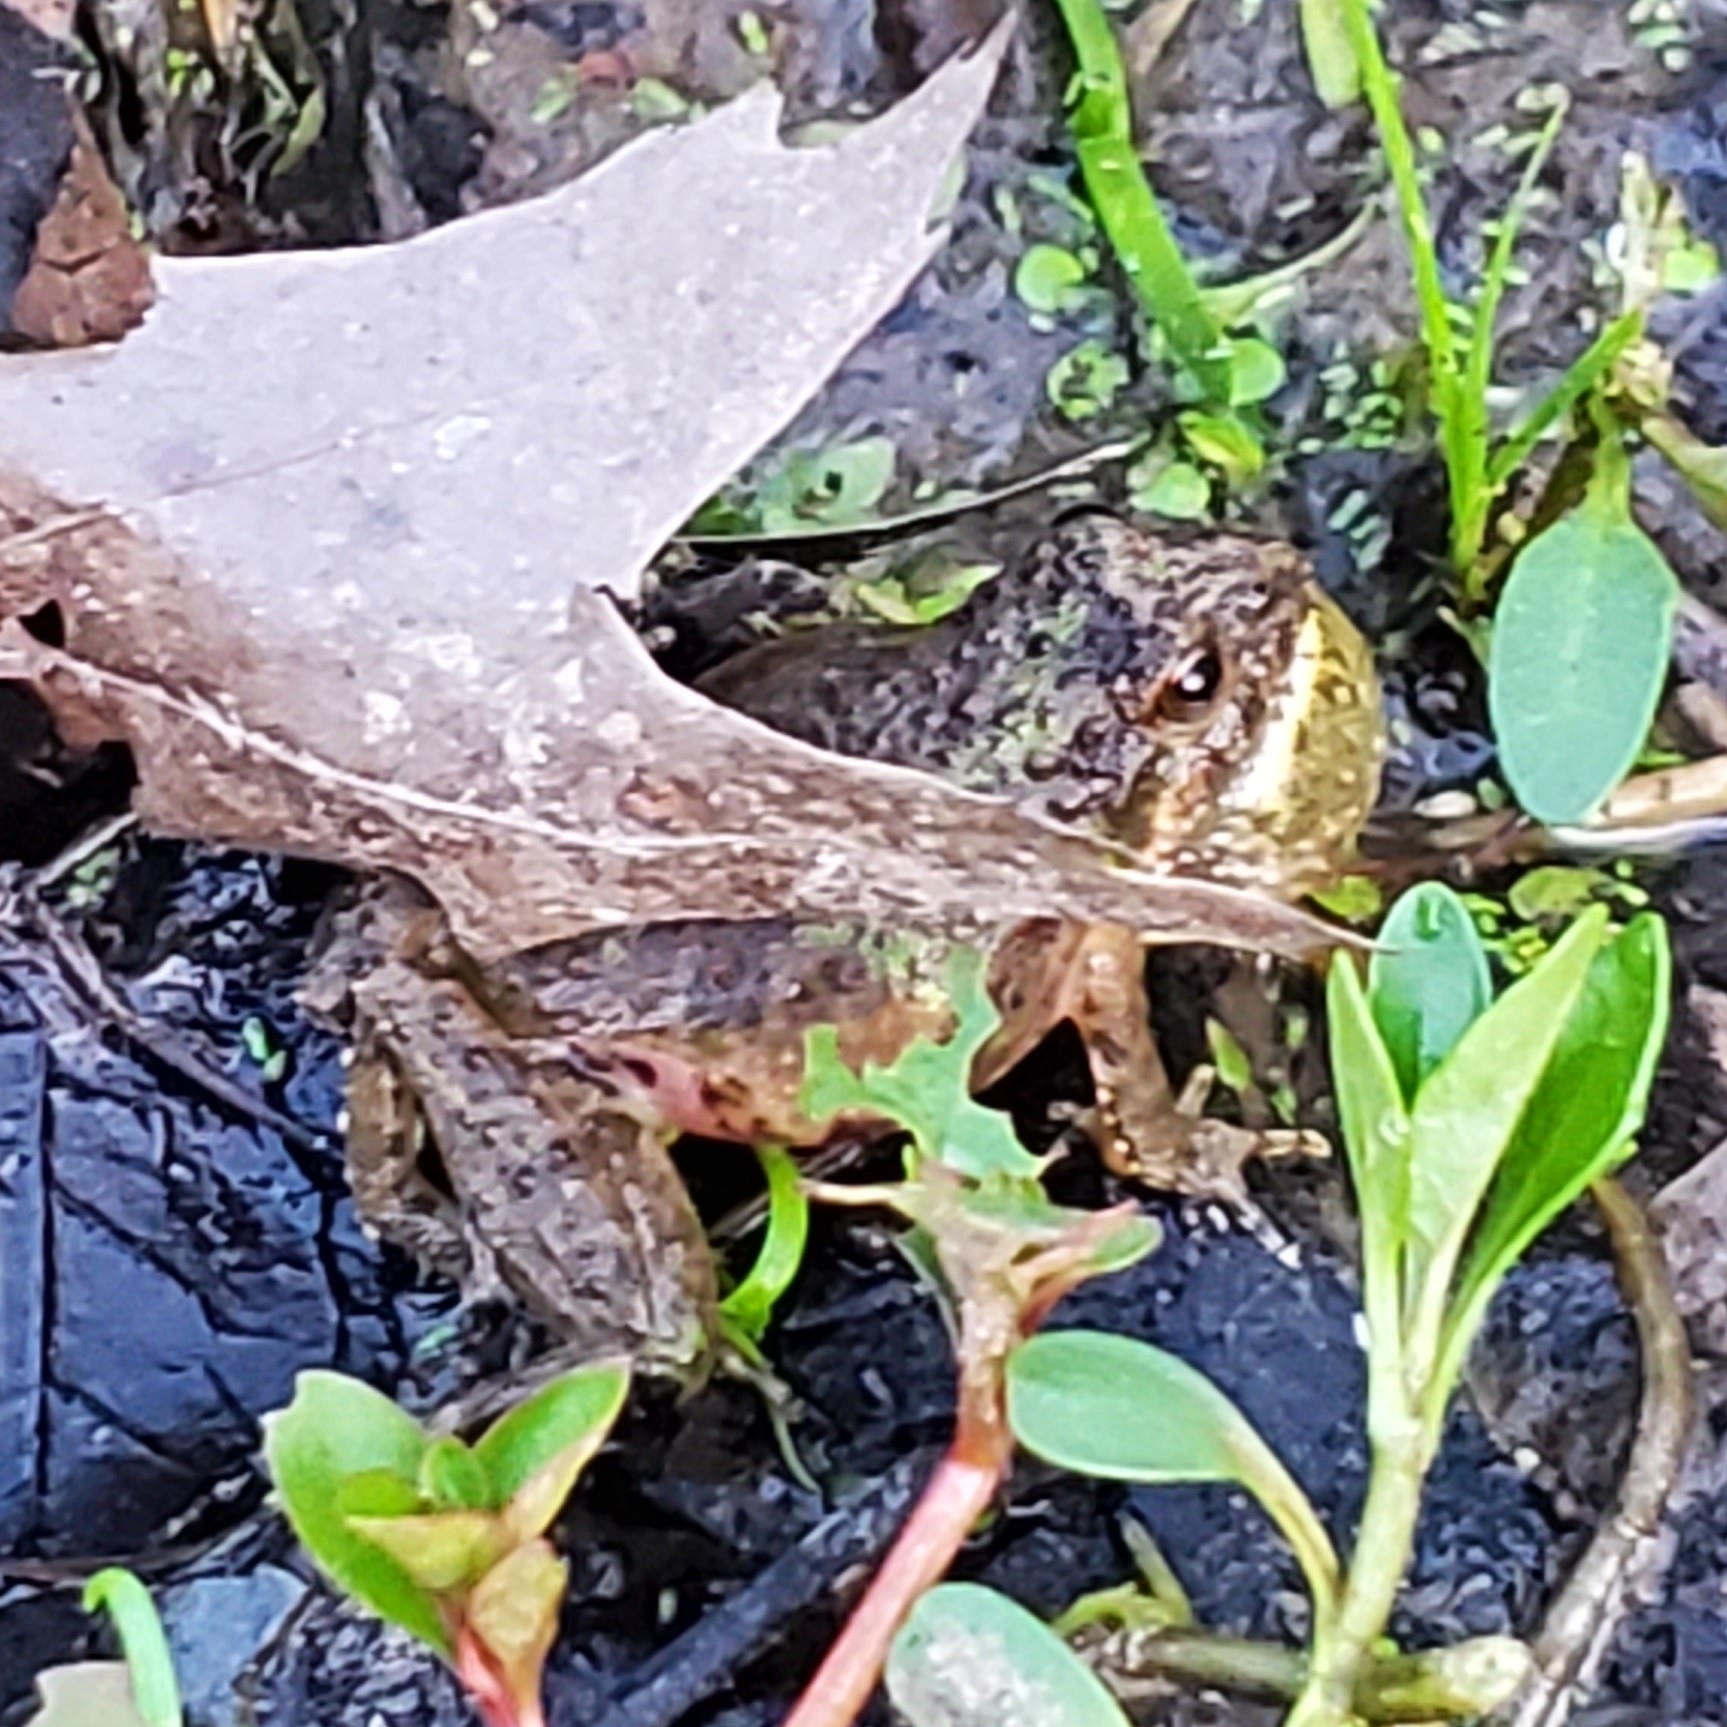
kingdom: Animalia
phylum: Chordata
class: Amphibia
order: Anura
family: Hylidae
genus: Acris
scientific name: Acris blanchardi
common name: Blanchard's cricket frog
